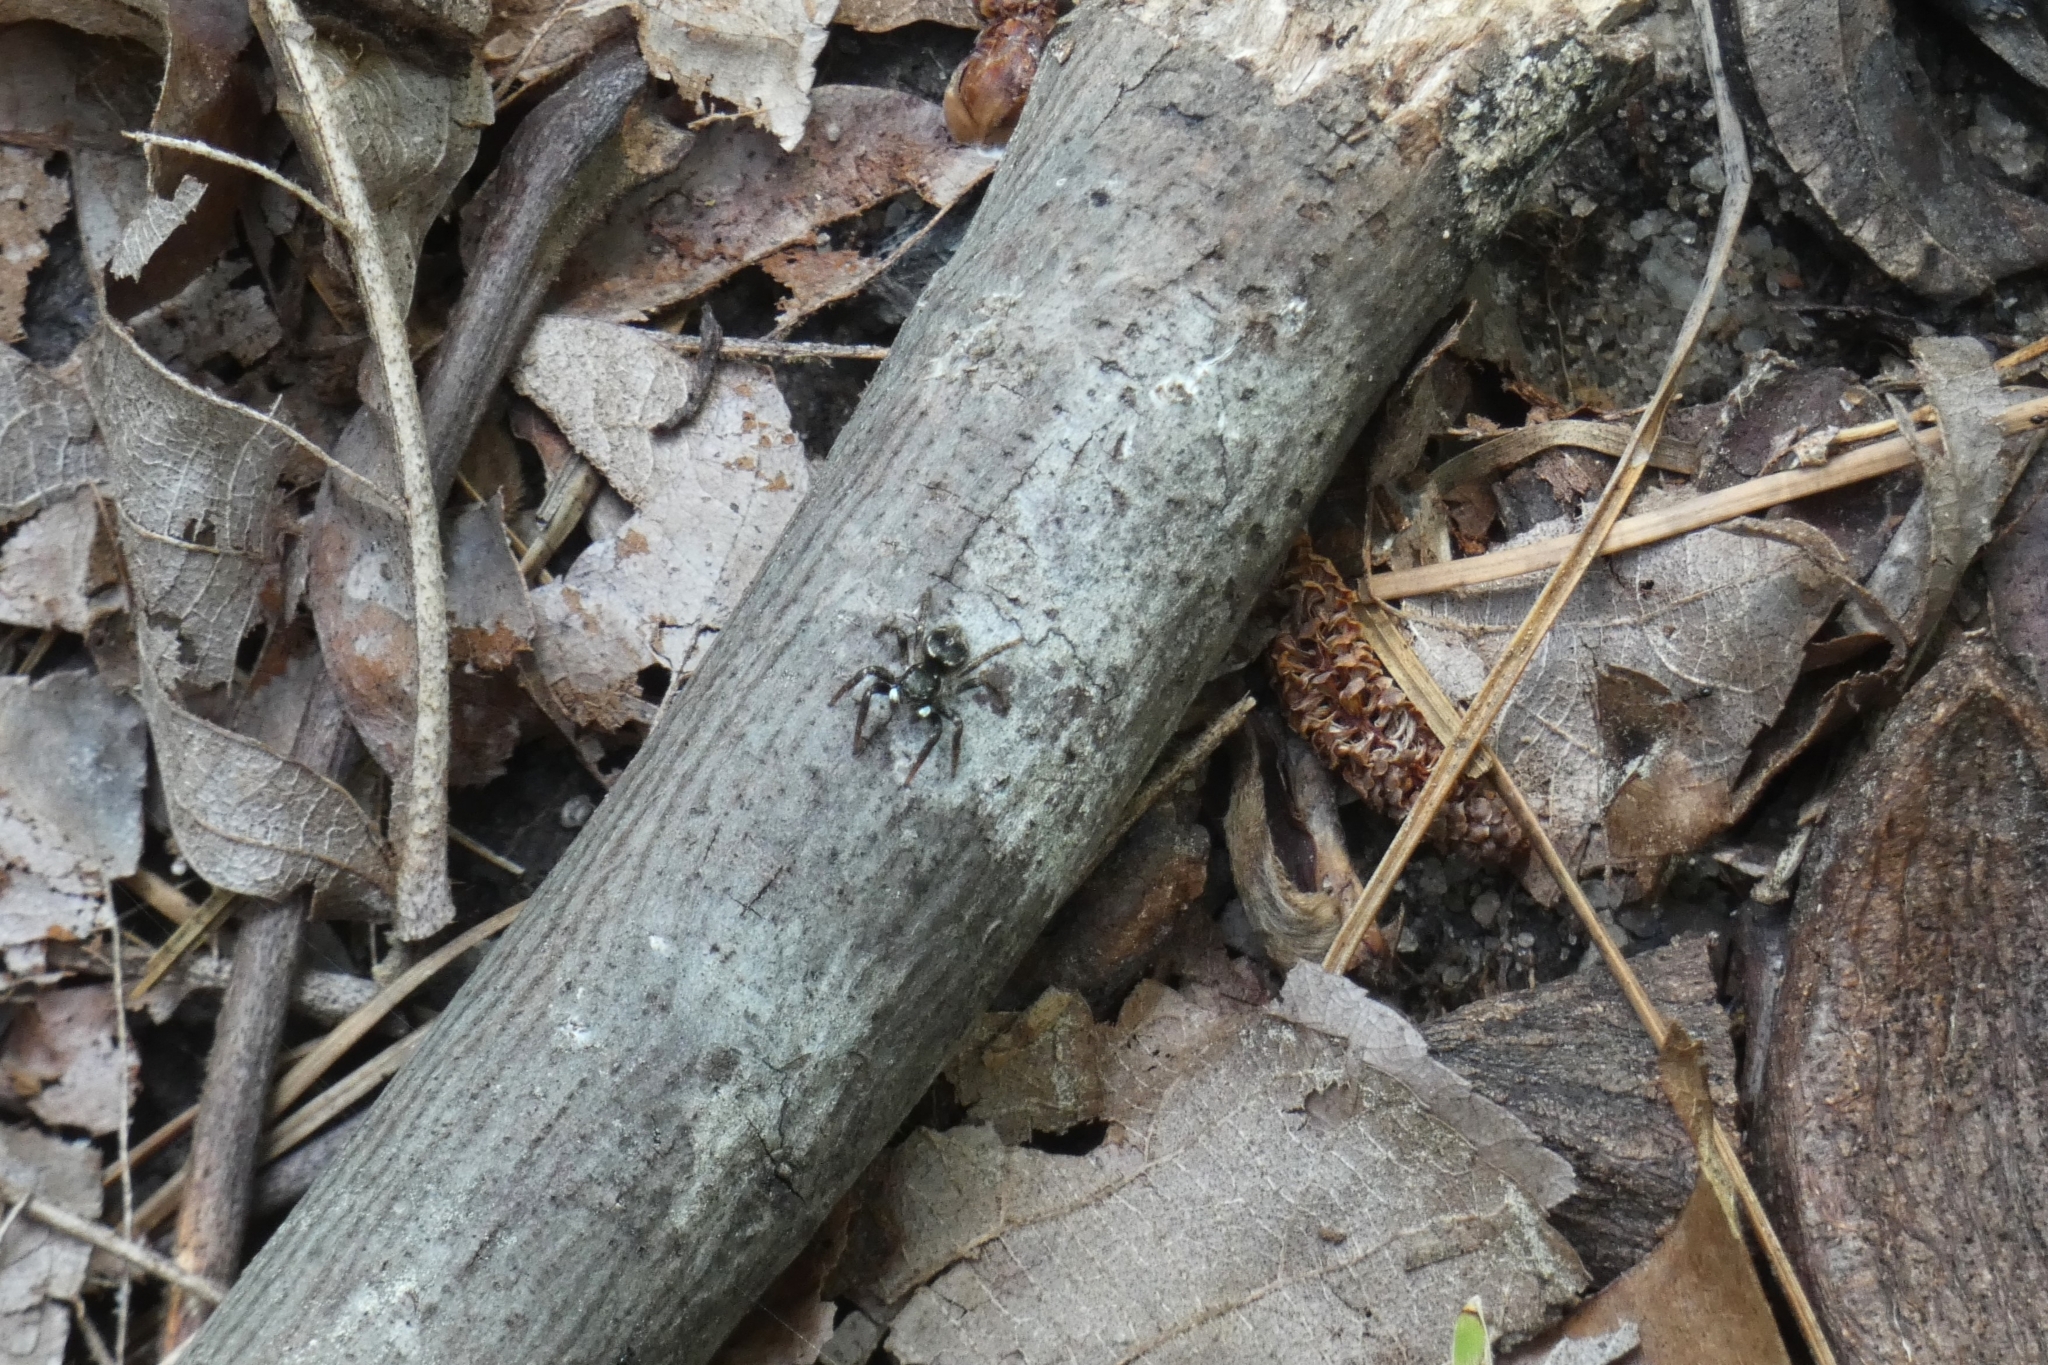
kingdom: Animalia
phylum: Arthropoda
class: Arachnida
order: Araneae
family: Salticidae
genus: Anasaitis
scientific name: Anasaitis canosa
